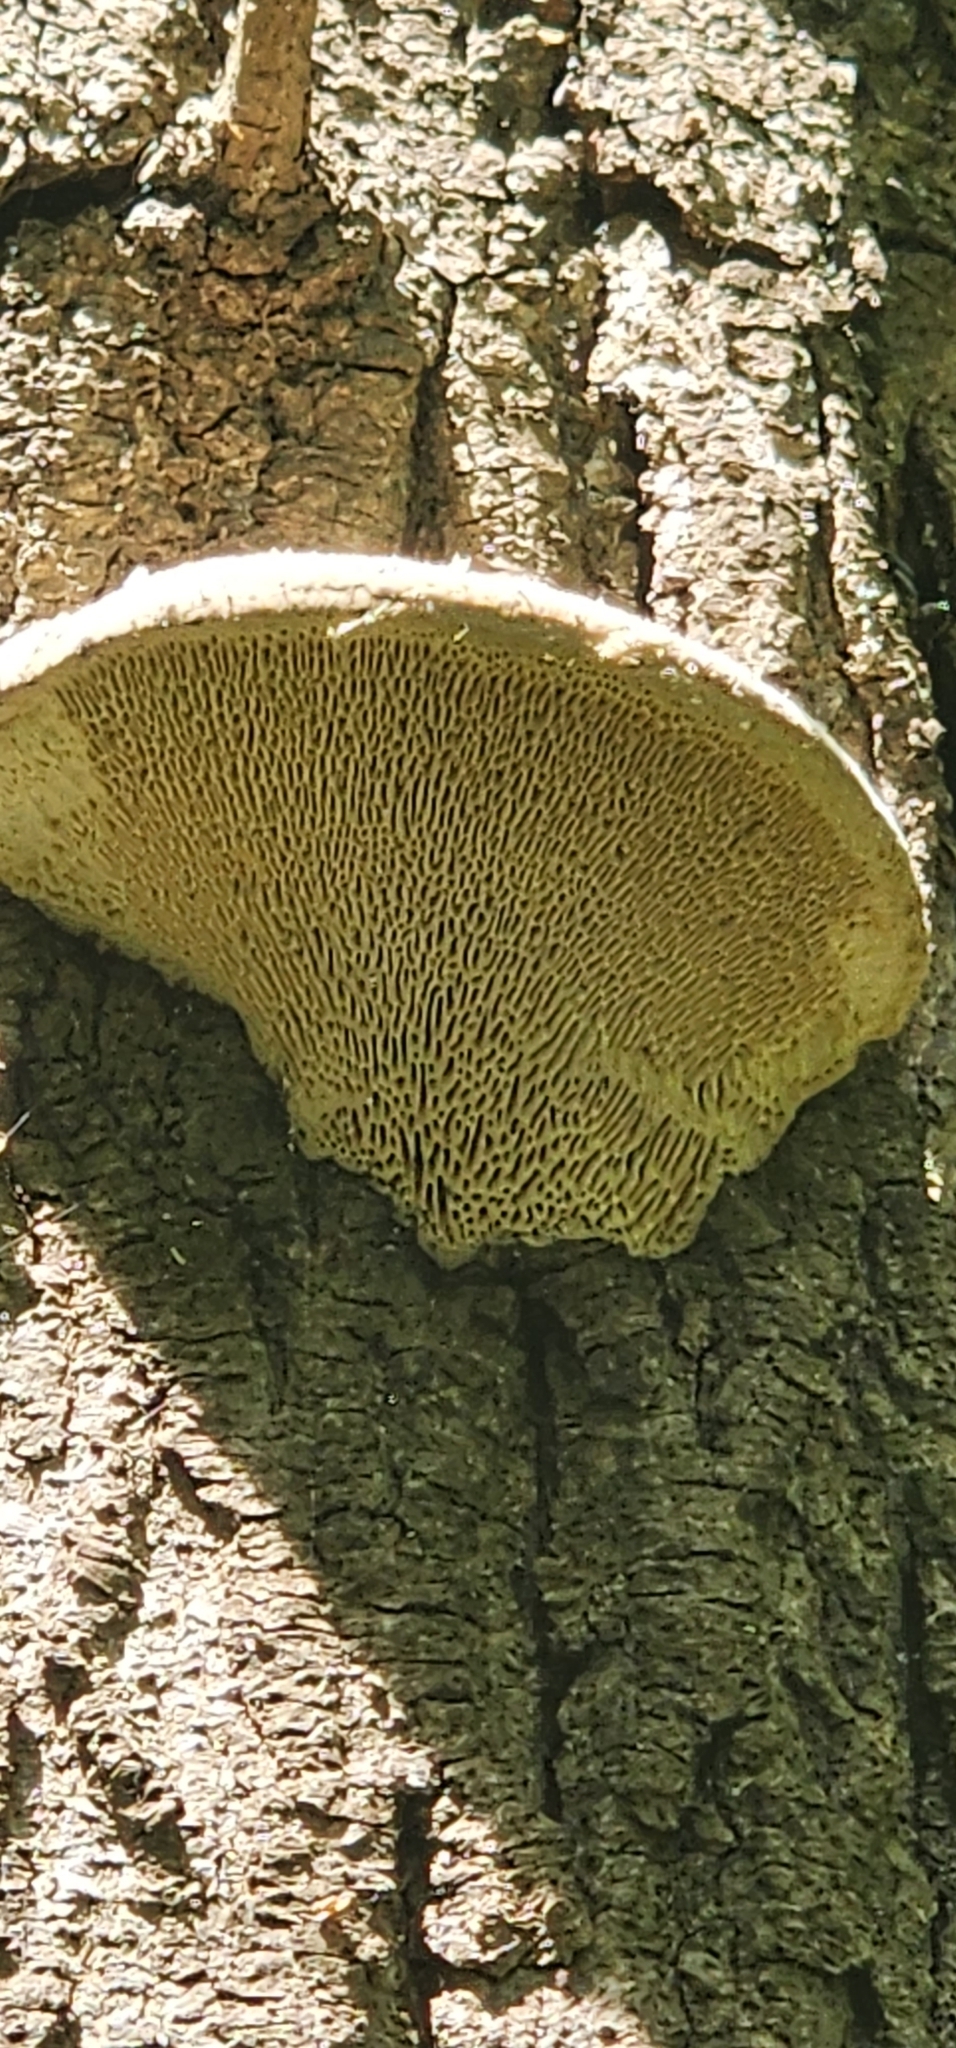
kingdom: Fungi
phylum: Basidiomycota
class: Agaricomycetes
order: Polyporales
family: Fomitopsidaceae
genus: Fomitopsis
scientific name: Fomitopsis
